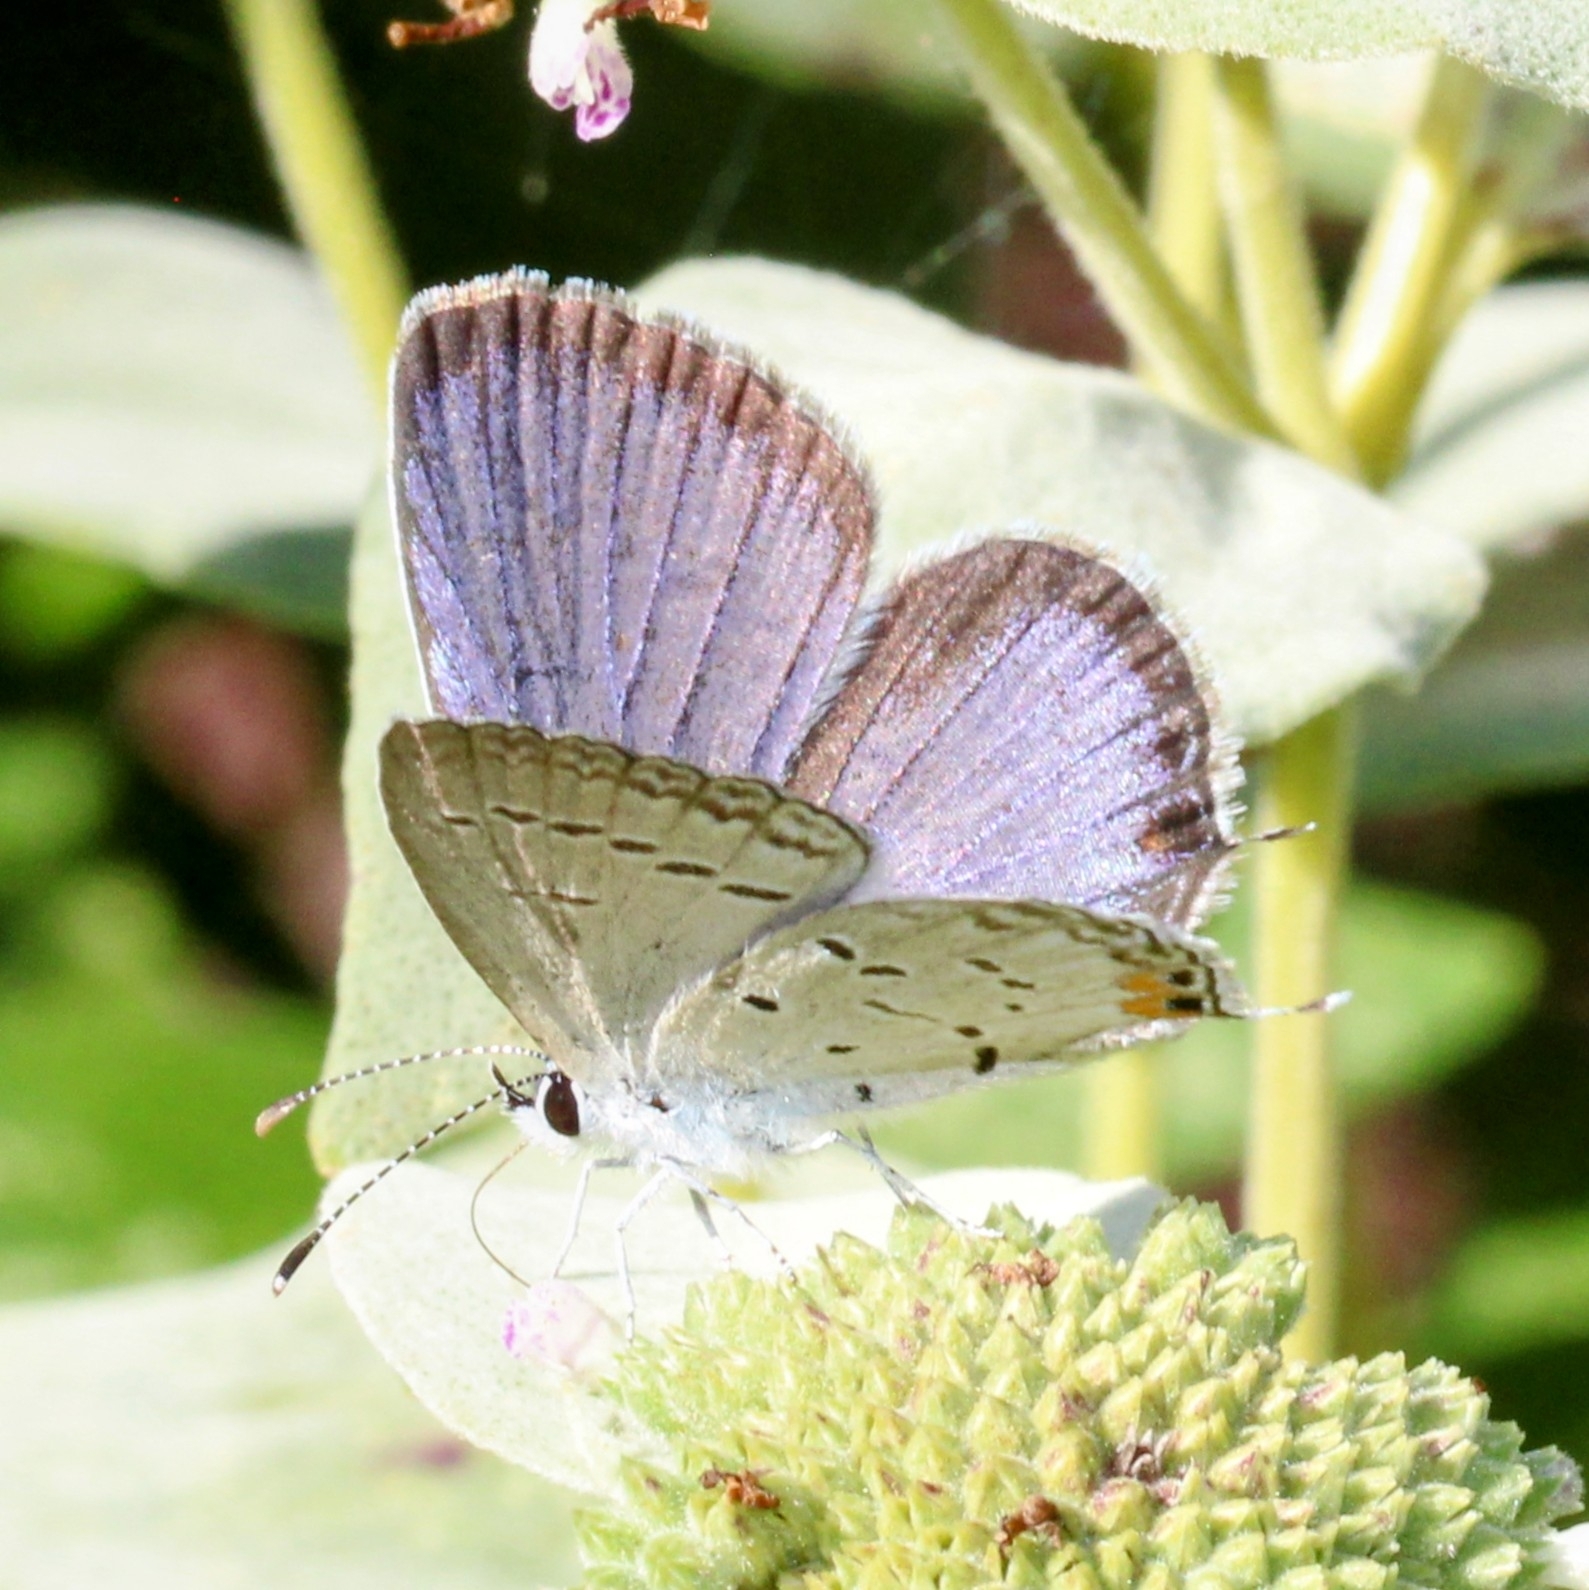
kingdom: Animalia
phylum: Arthropoda
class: Insecta
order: Lepidoptera
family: Lycaenidae
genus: Elkalyce
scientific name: Elkalyce comyntas
